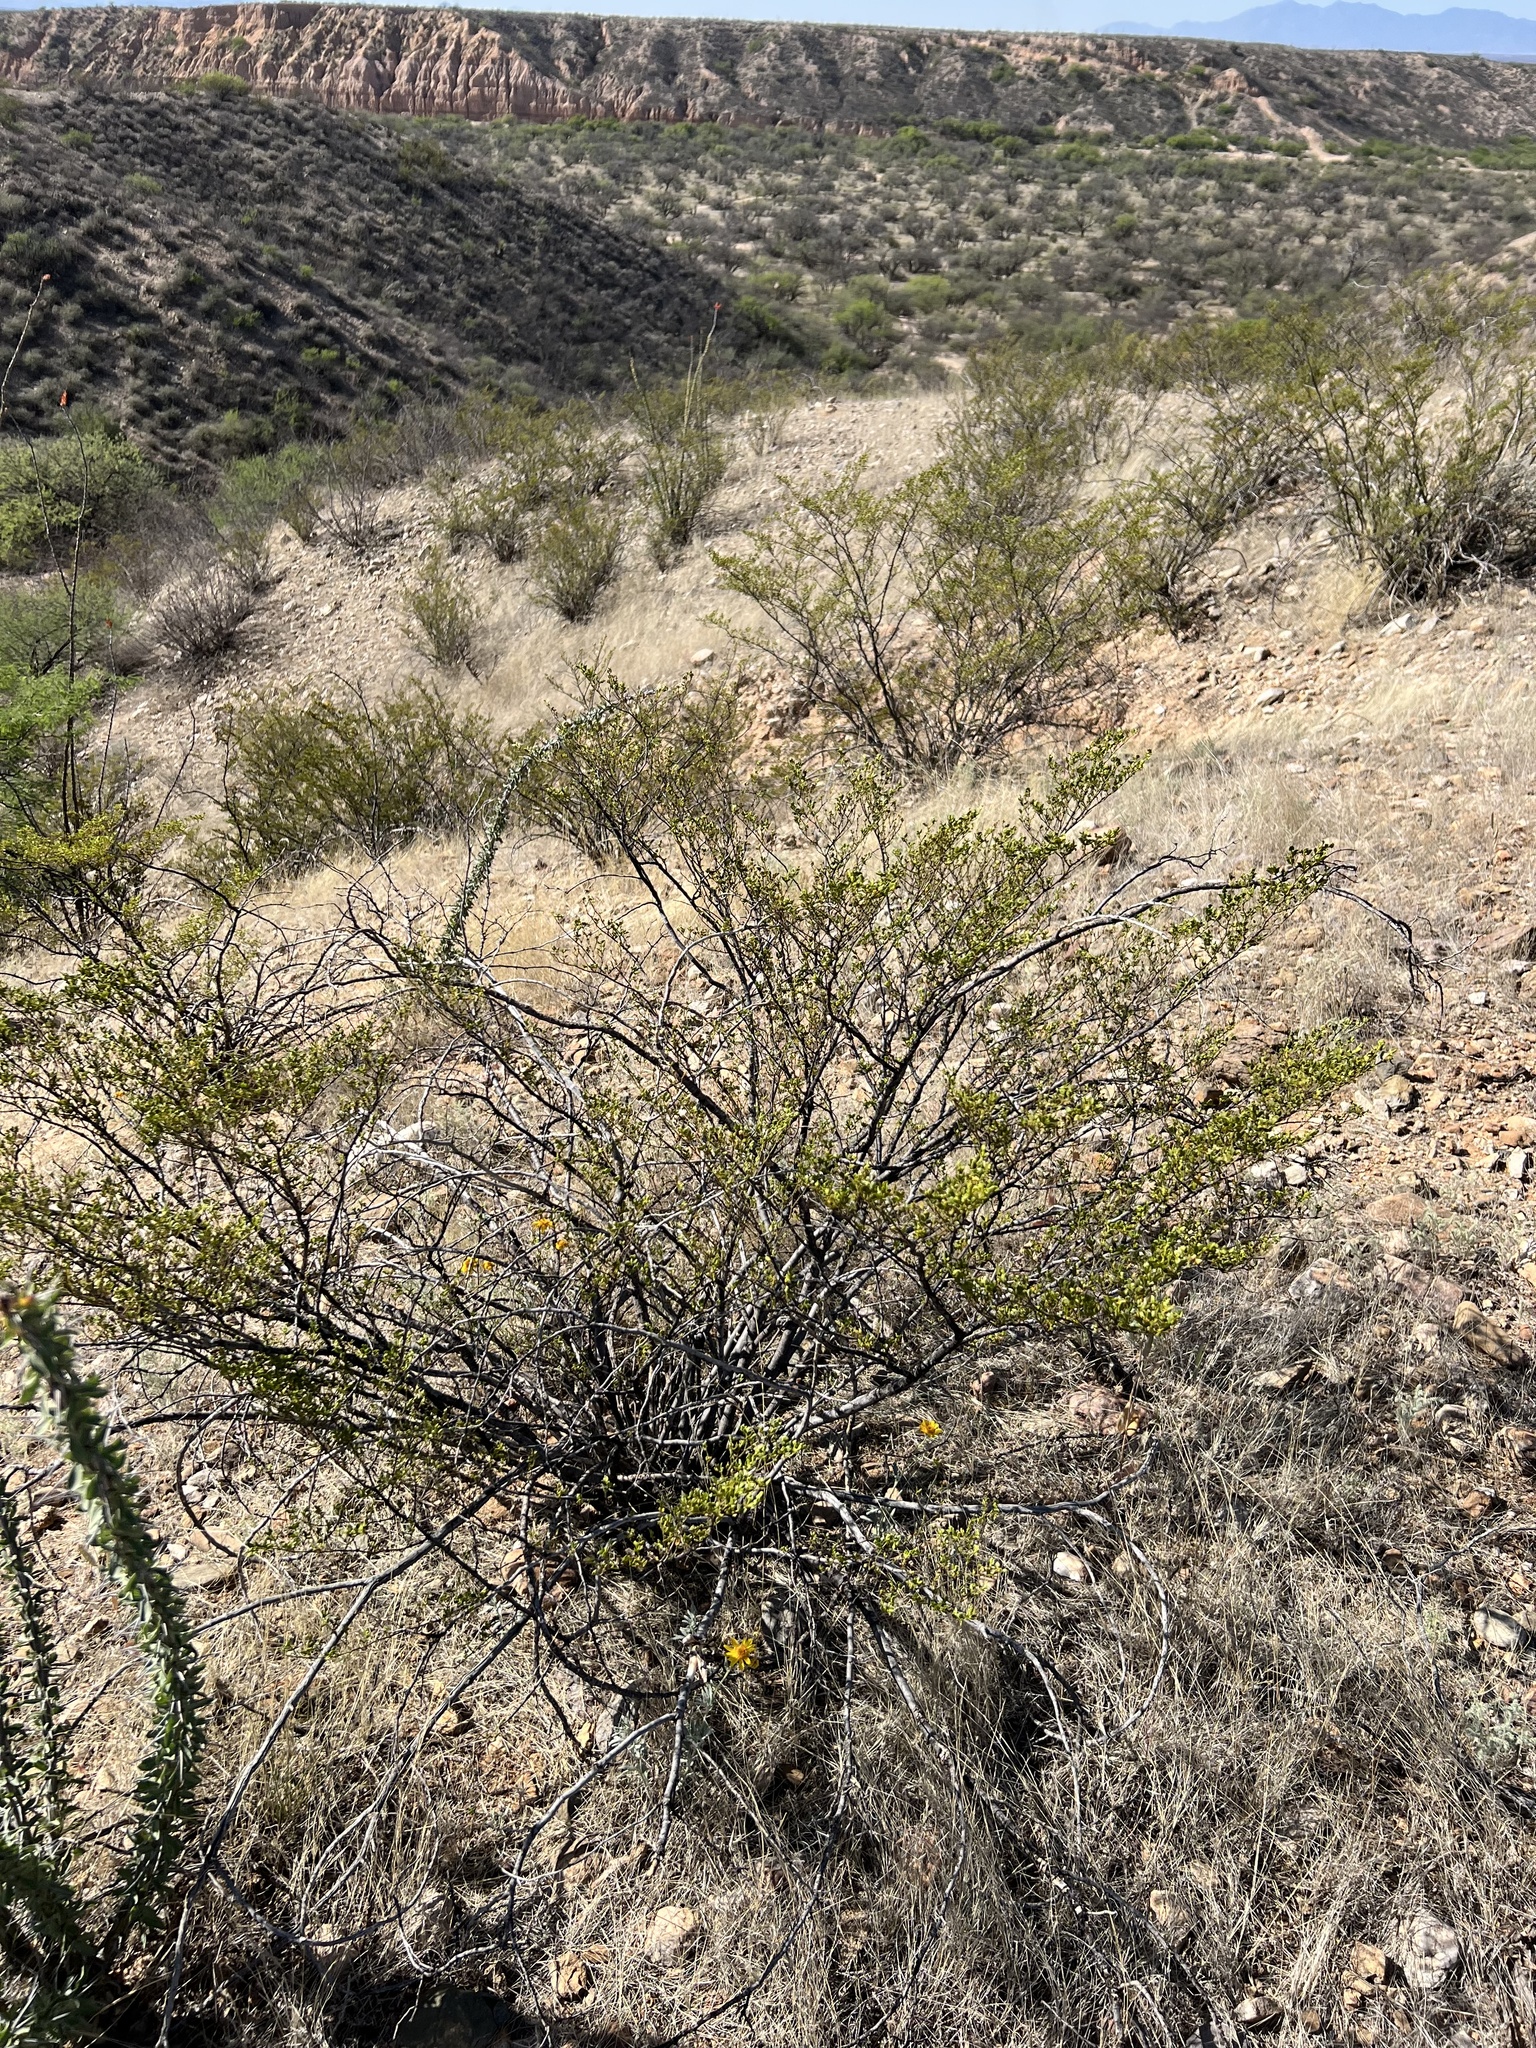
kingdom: Plantae
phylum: Tracheophyta
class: Magnoliopsida
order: Zygophyllales
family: Zygophyllaceae
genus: Larrea
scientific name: Larrea tridentata
